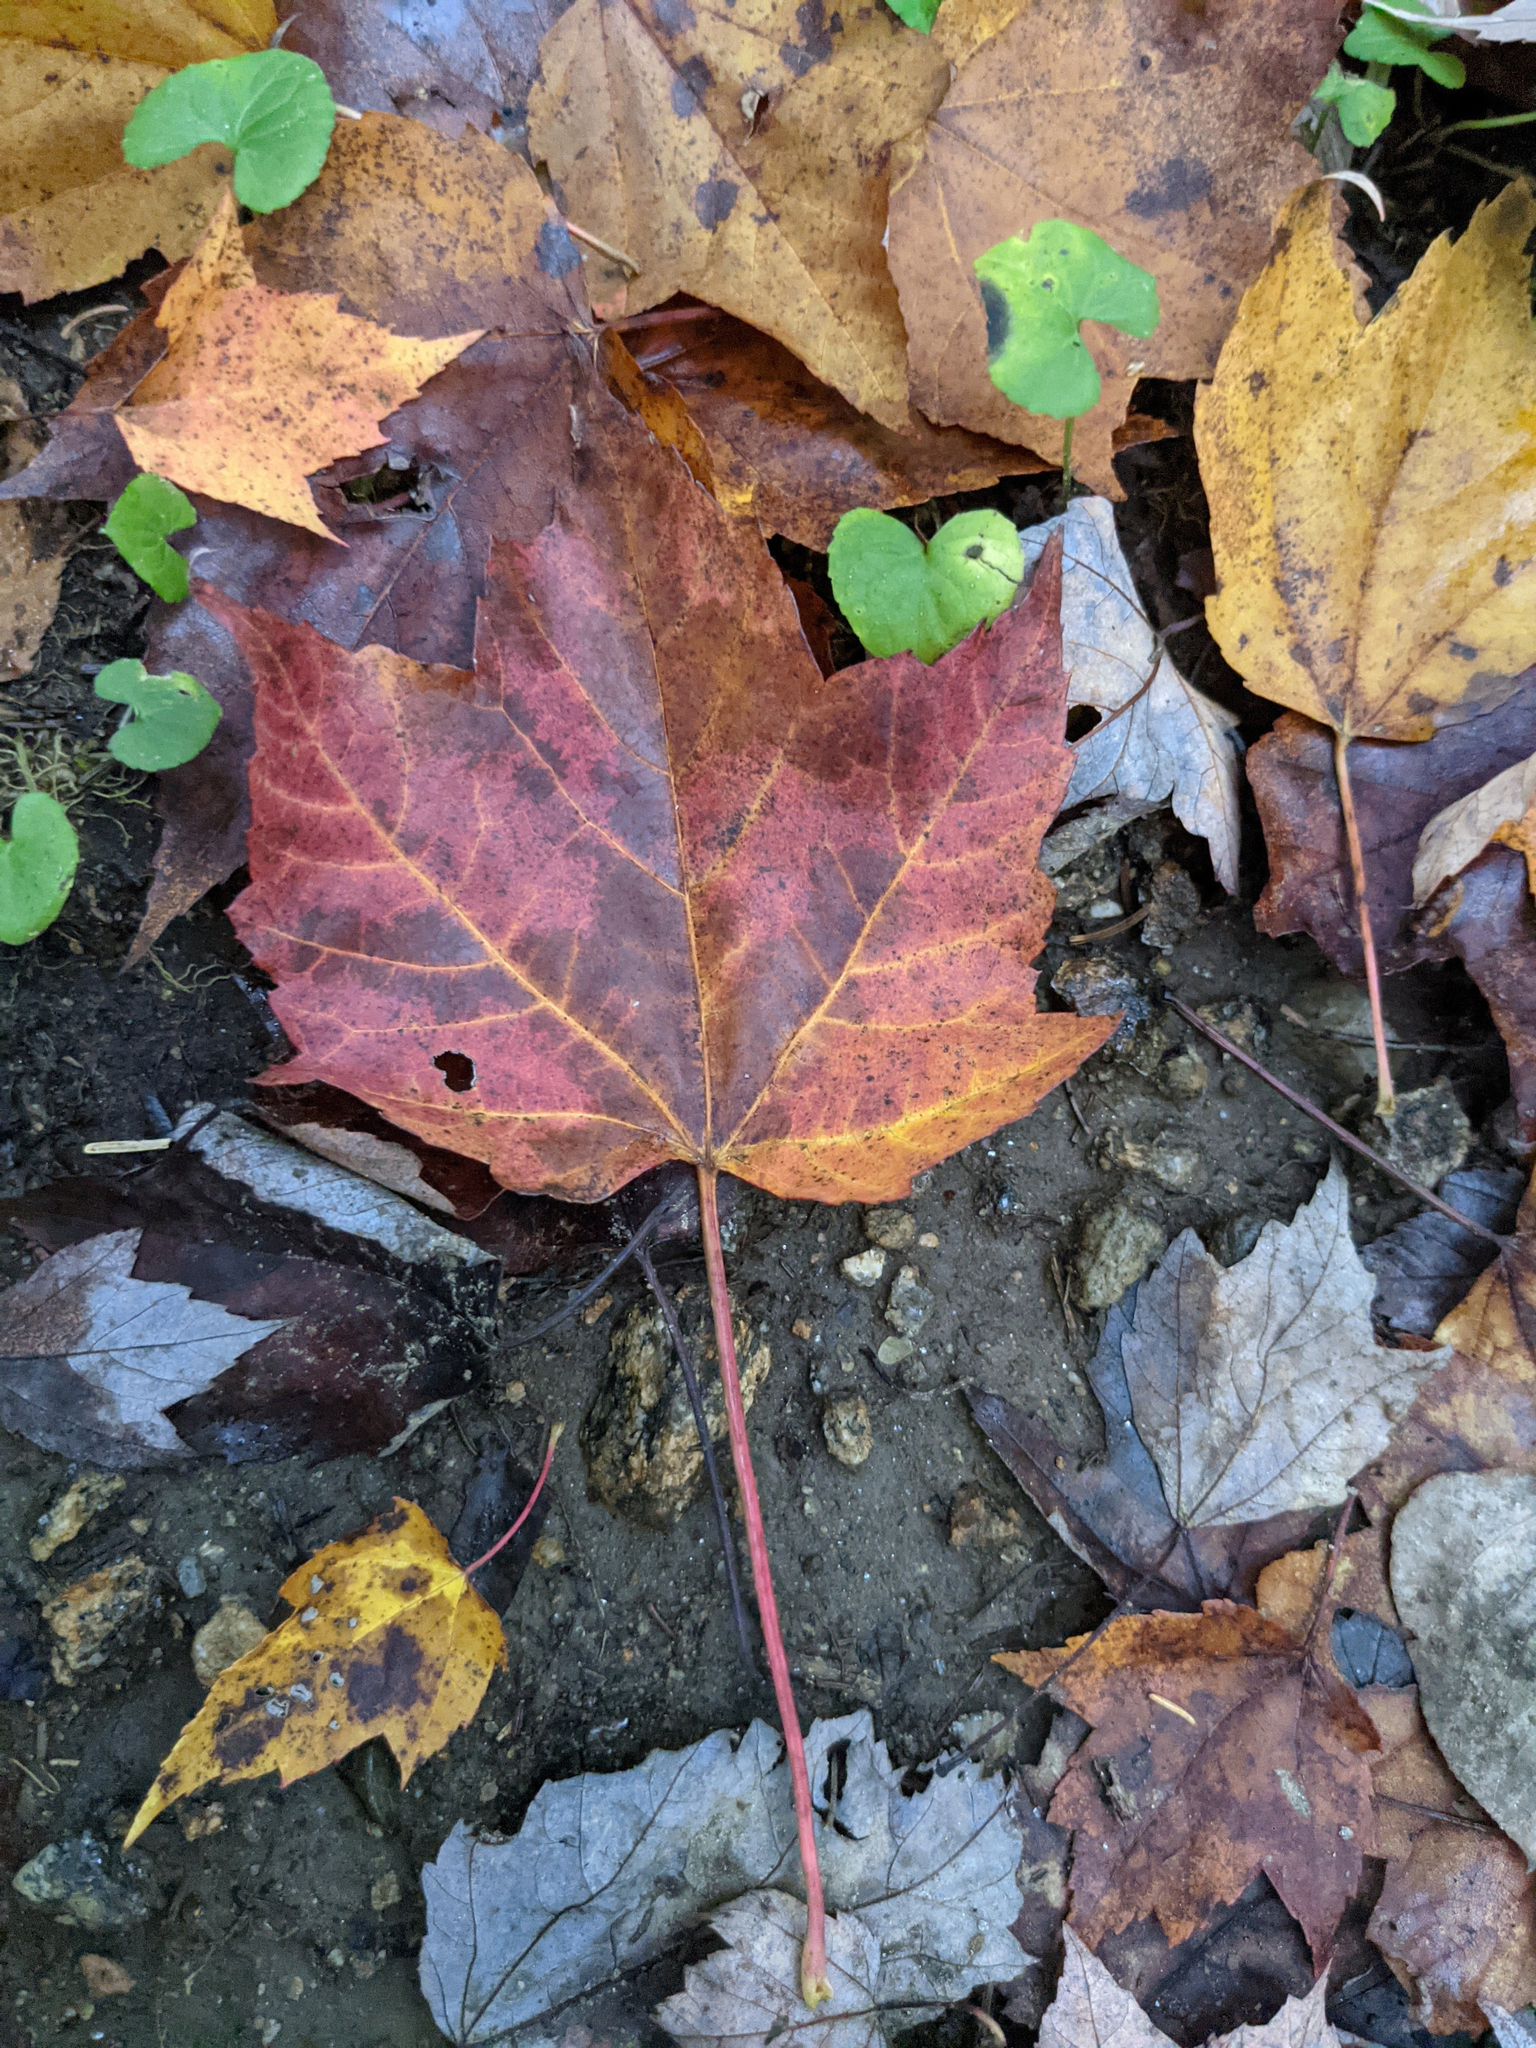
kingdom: Plantae
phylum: Tracheophyta
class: Magnoliopsida
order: Sapindales
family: Sapindaceae
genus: Acer
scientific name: Acer rubrum
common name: Red maple
